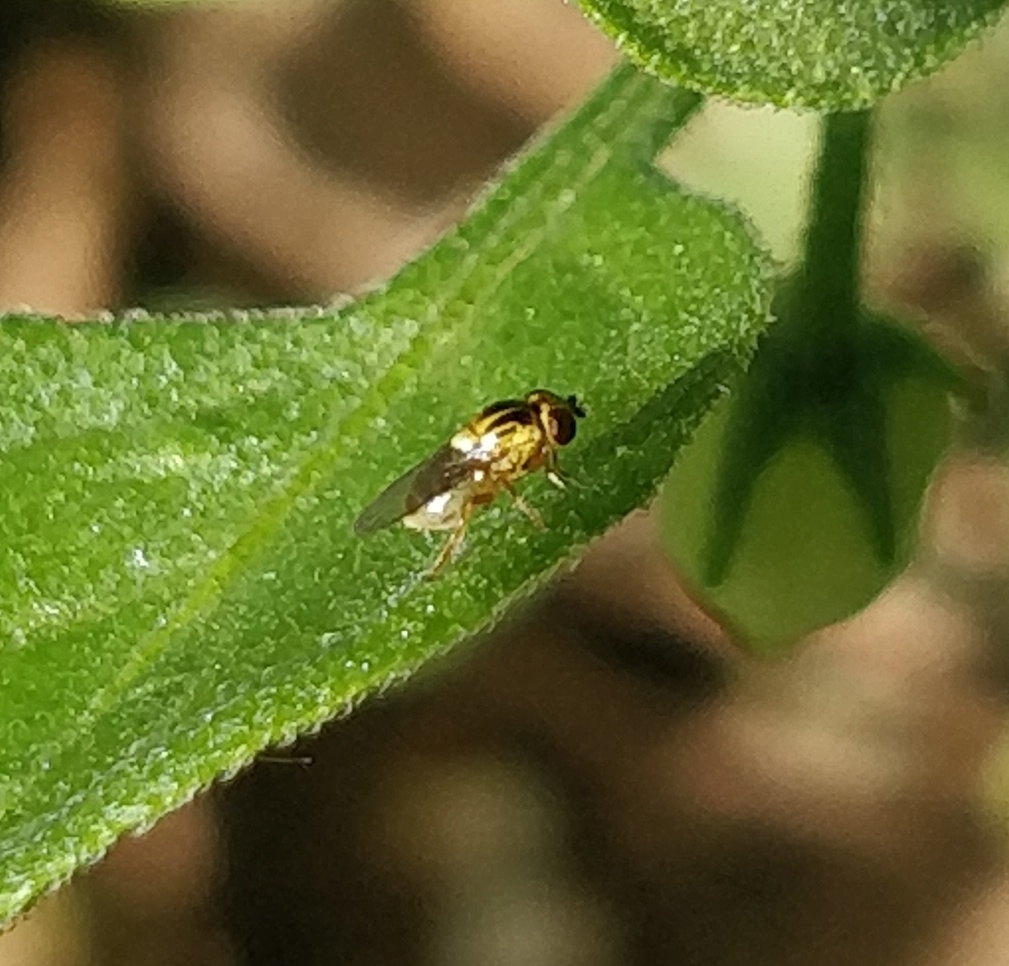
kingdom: Animalia
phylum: Arthropoda
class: Insecta
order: Diptera
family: Chloropidae
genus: Thaumatomyia
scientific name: Thaumatomyia notata
